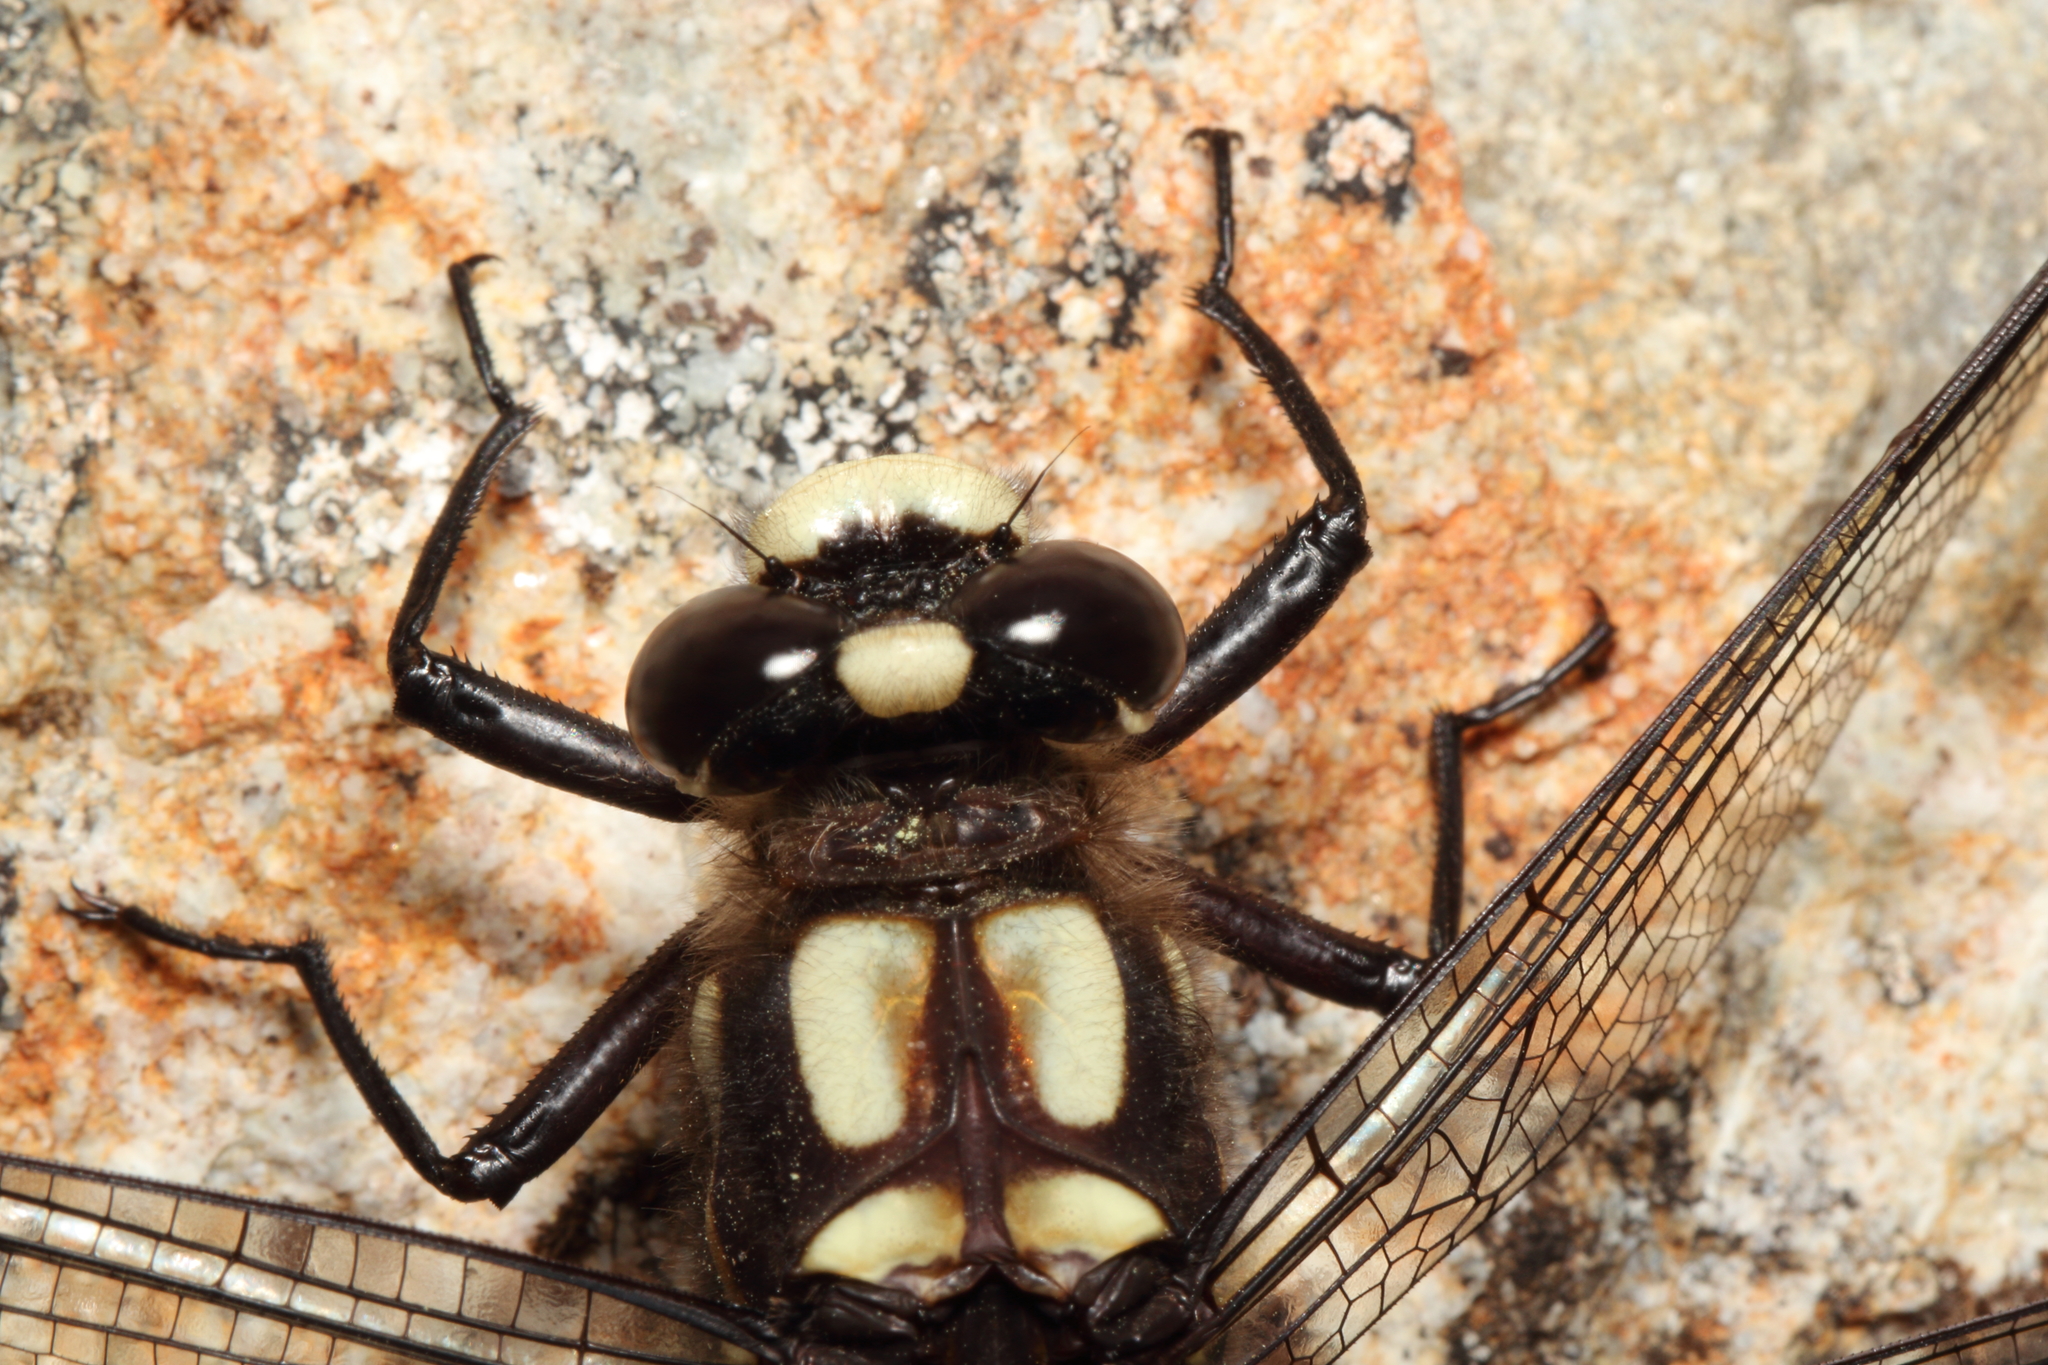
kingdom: Animalia
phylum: Arthropoda
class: Insecta
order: Odonata
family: Petaluridae
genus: Uropetala
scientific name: Uropetala chiltoni
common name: Mountain giant dragonfly
